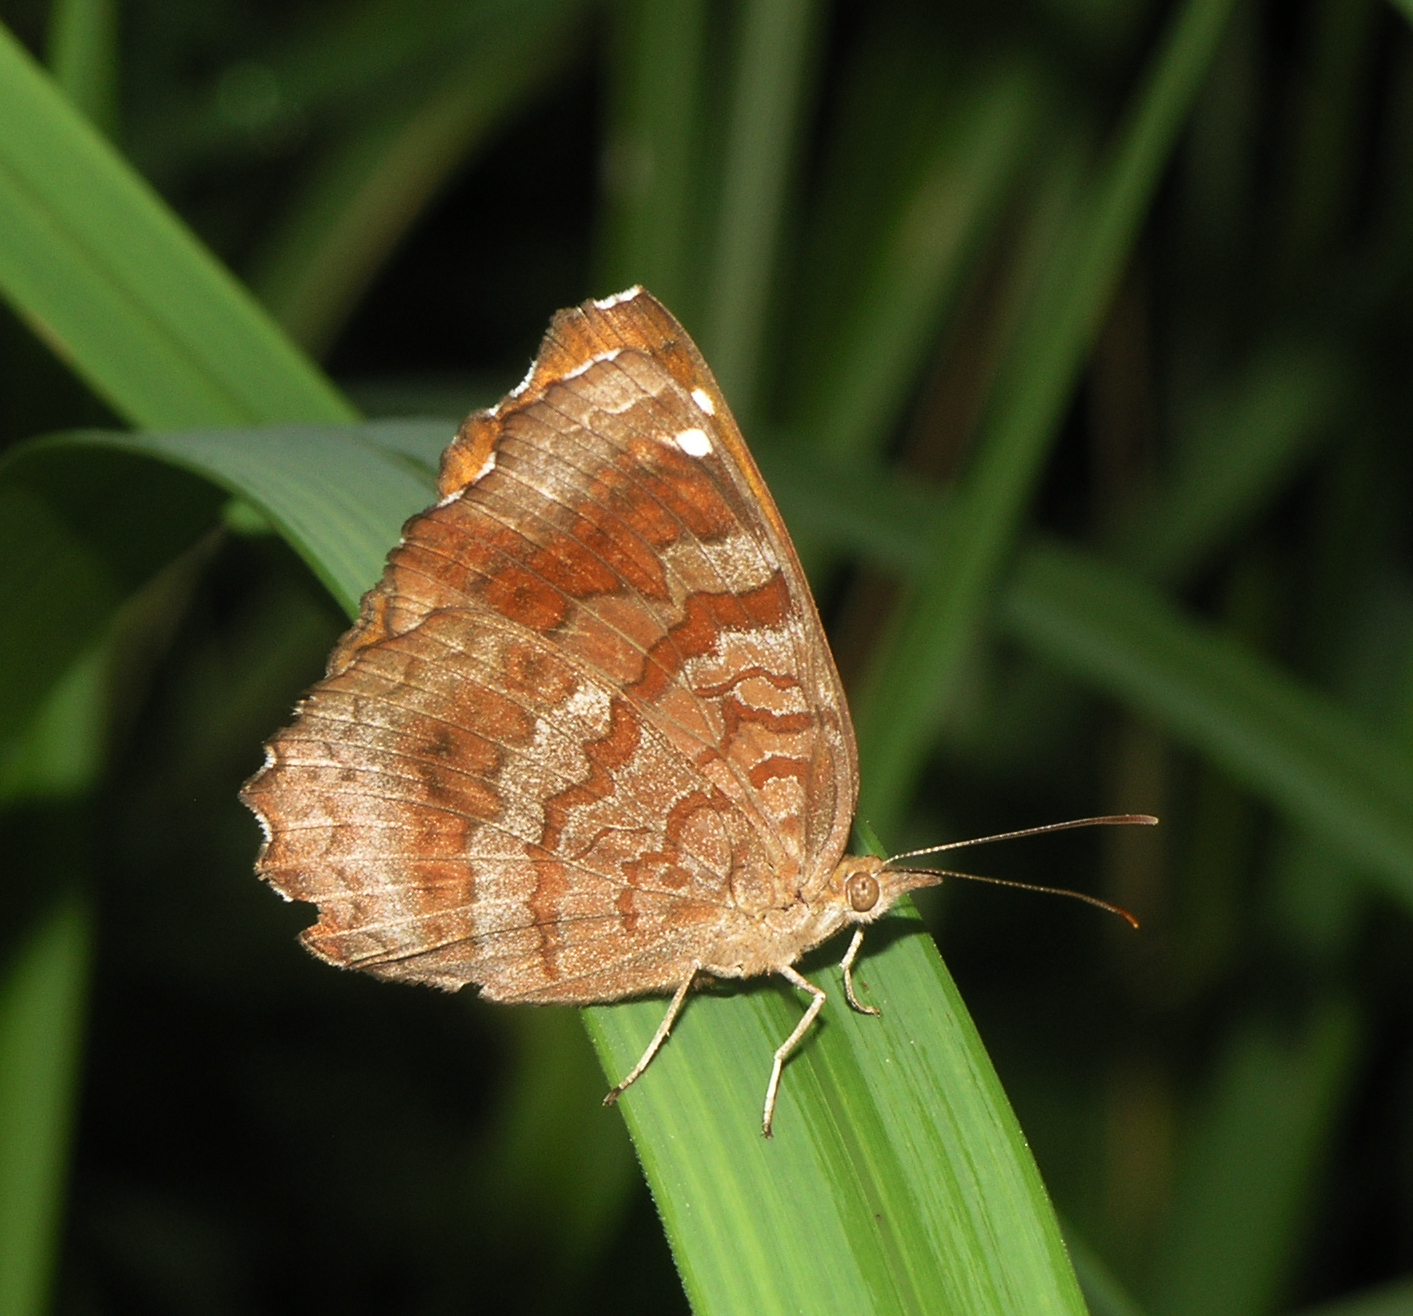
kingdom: Animalia
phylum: Arthropoda
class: Insecta
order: Lepidoptera
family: Nymphalidae
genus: Ariadne
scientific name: Ariadne merione
